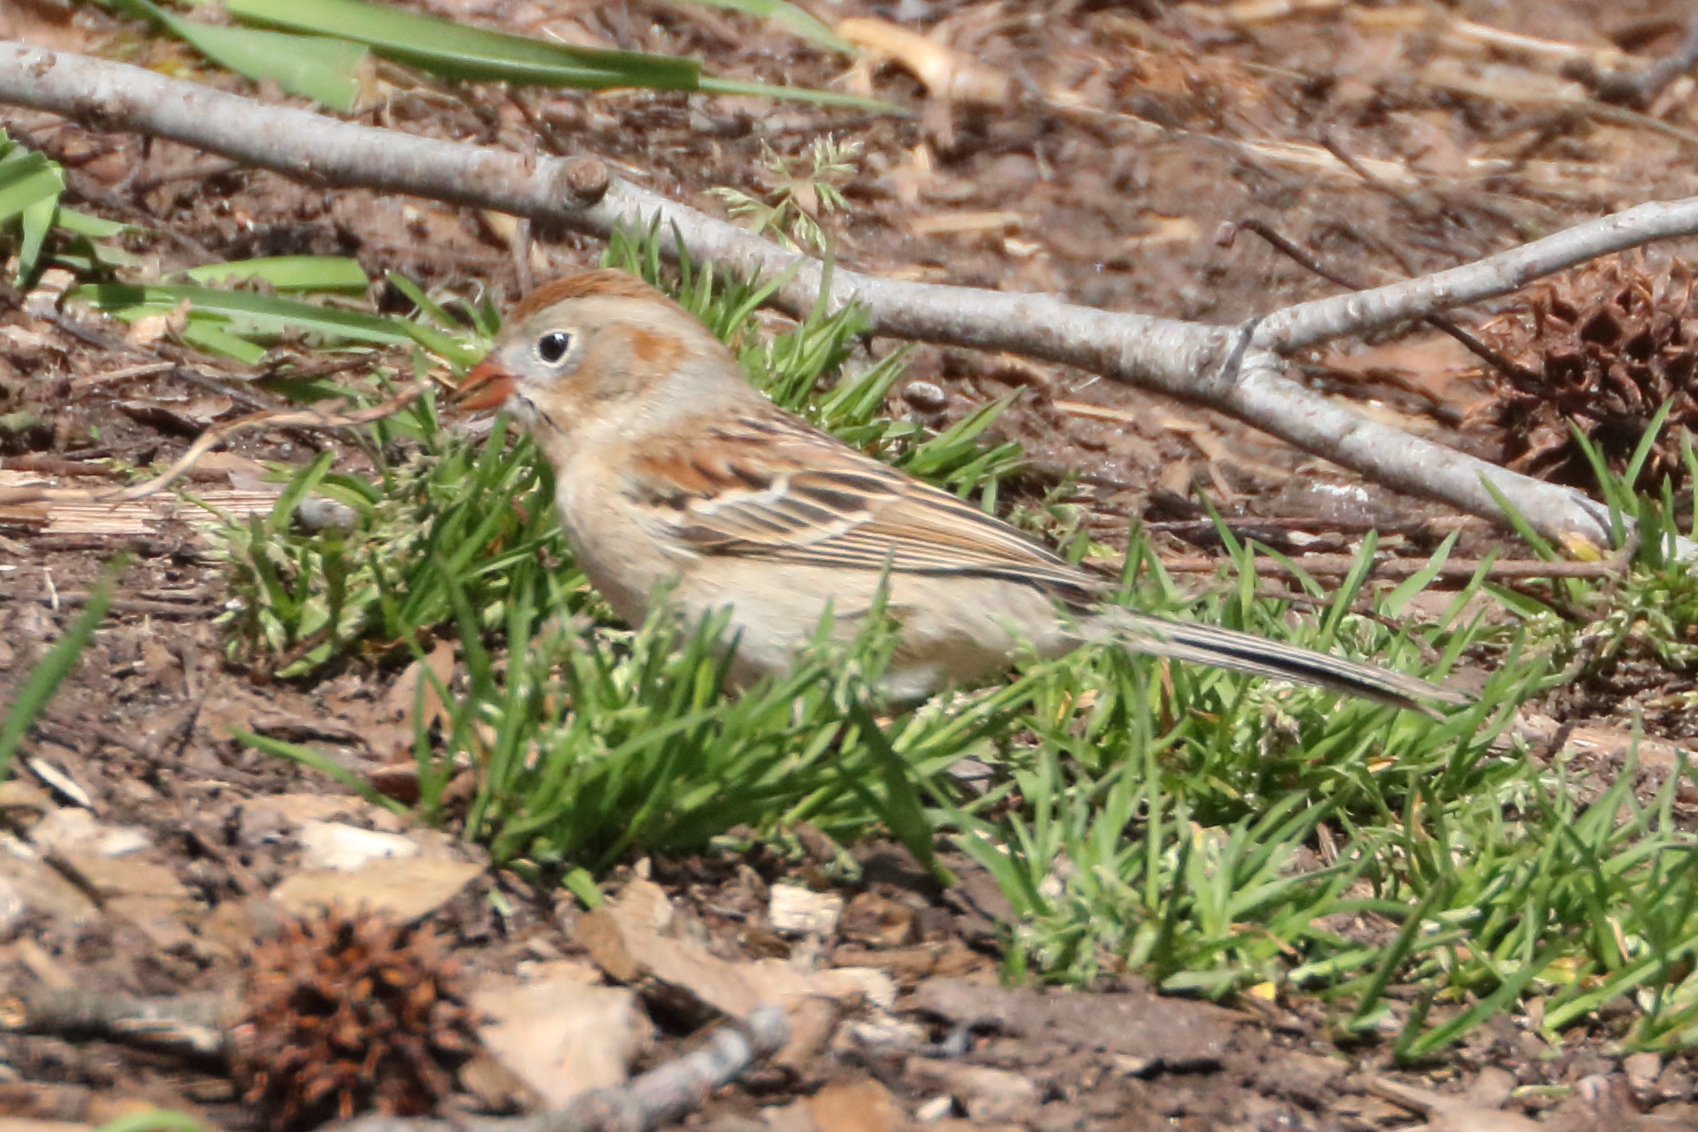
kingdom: Animalia
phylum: Chordata
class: Aves
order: Passeriformes
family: Passerellidae
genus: Spizella
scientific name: Spizella pusilla
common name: Field sparrow
